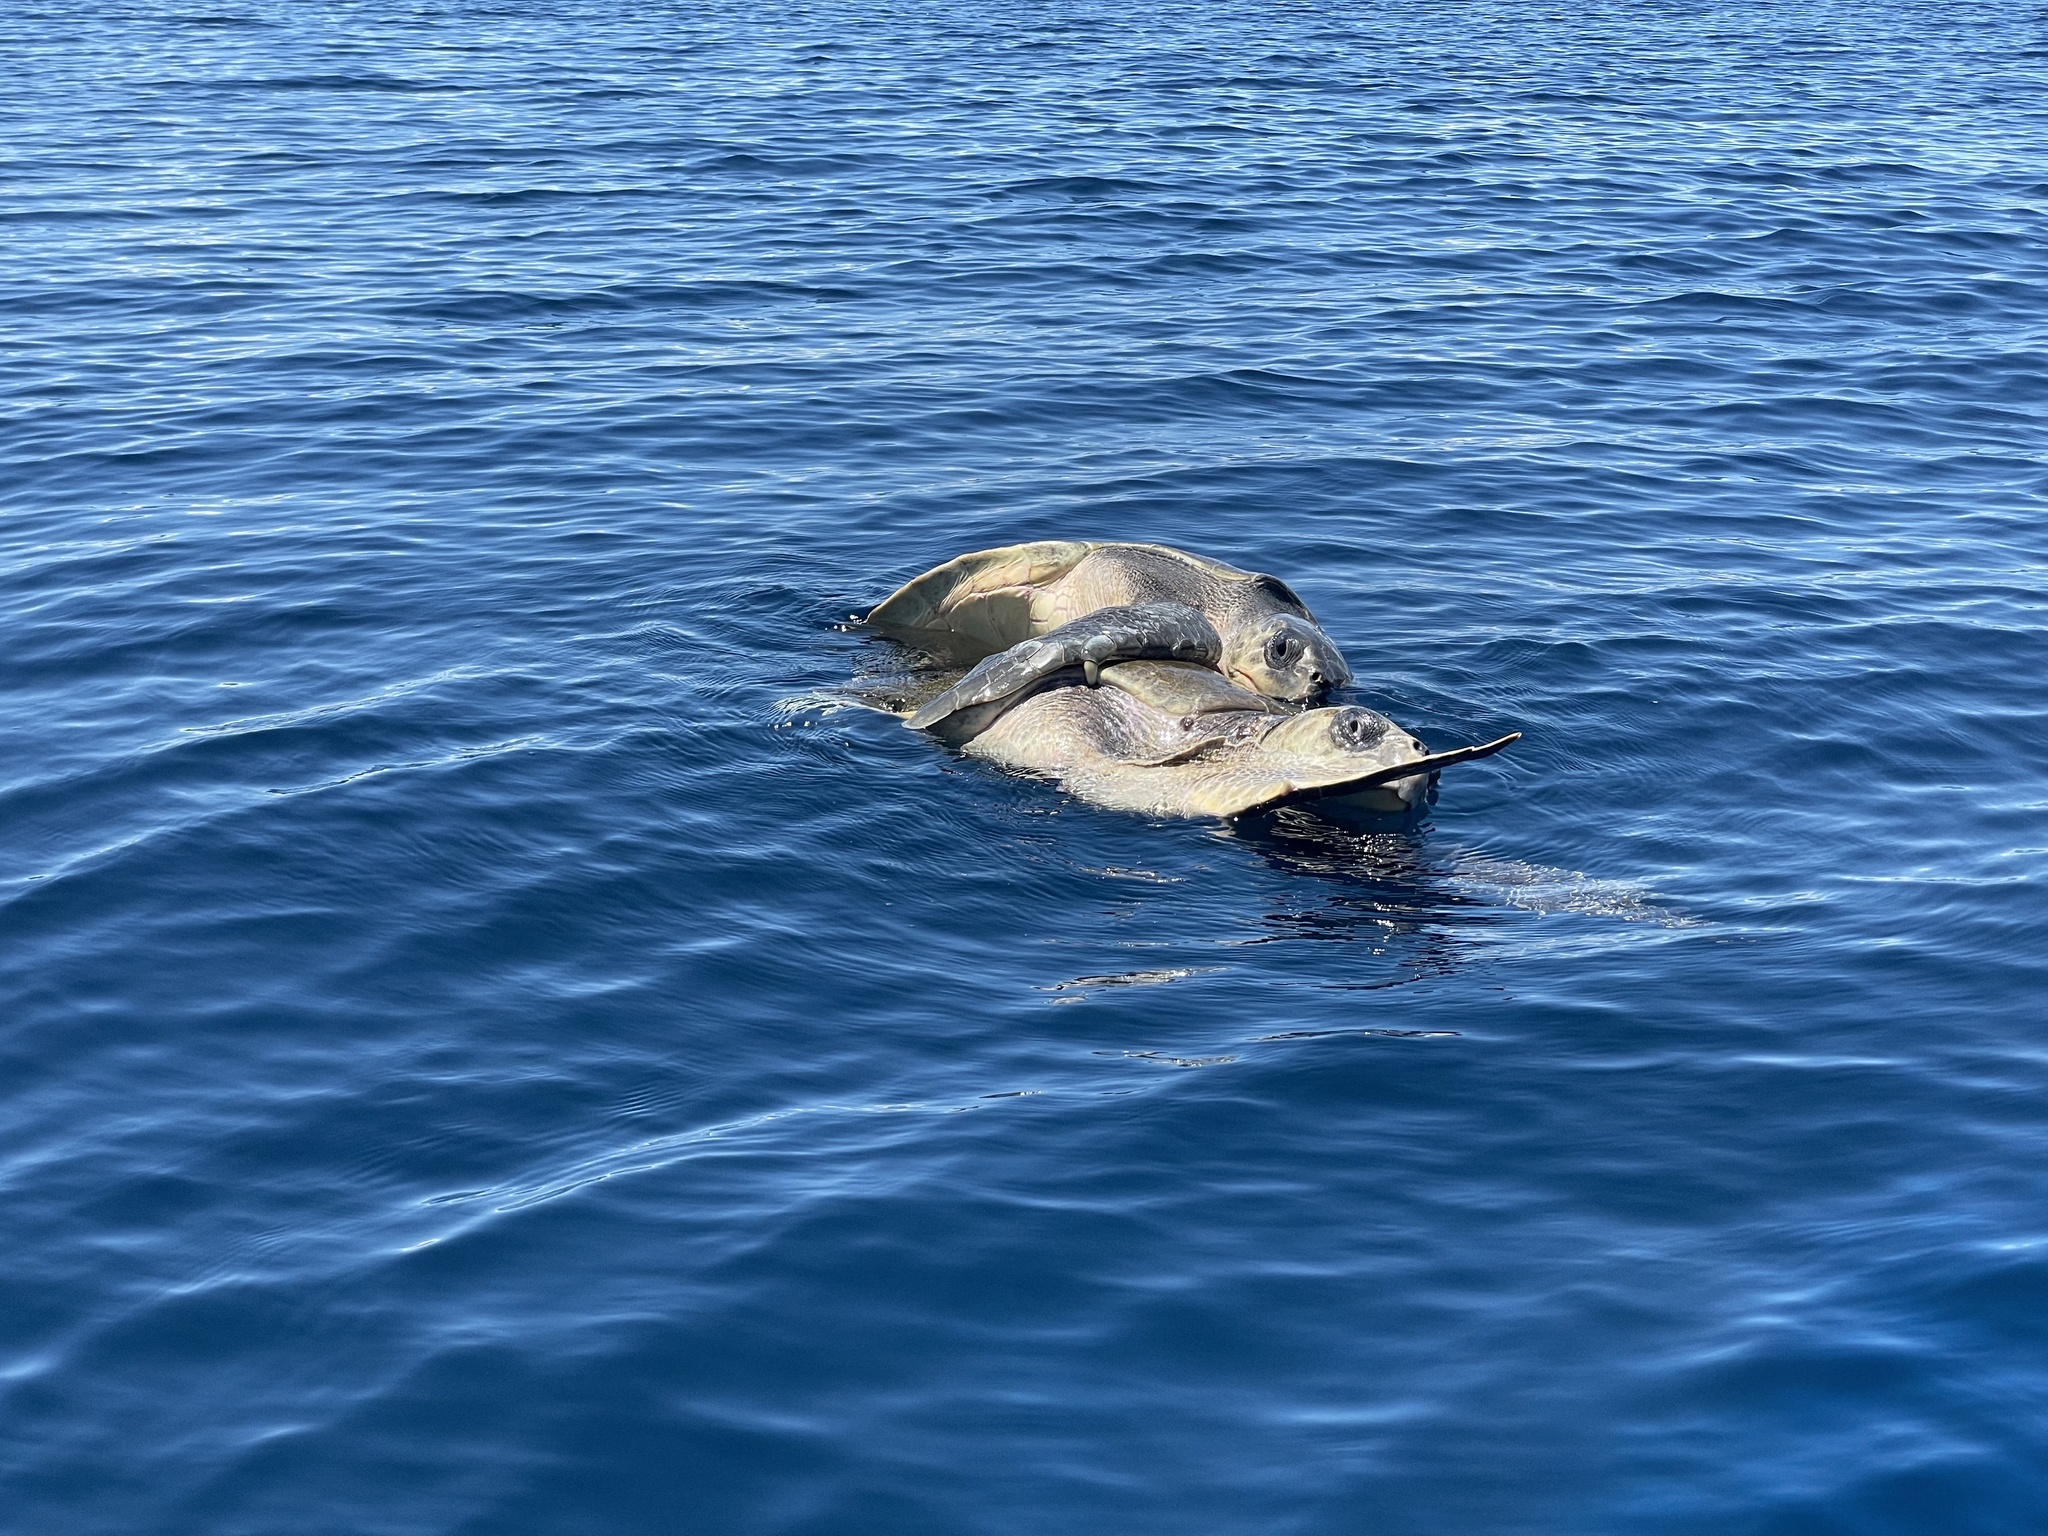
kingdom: Animalia
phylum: Chordata
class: Testudines
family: Cheloniidae
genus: Lepidochelys
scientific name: Lepidochelys olivacea
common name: Olive ridley
